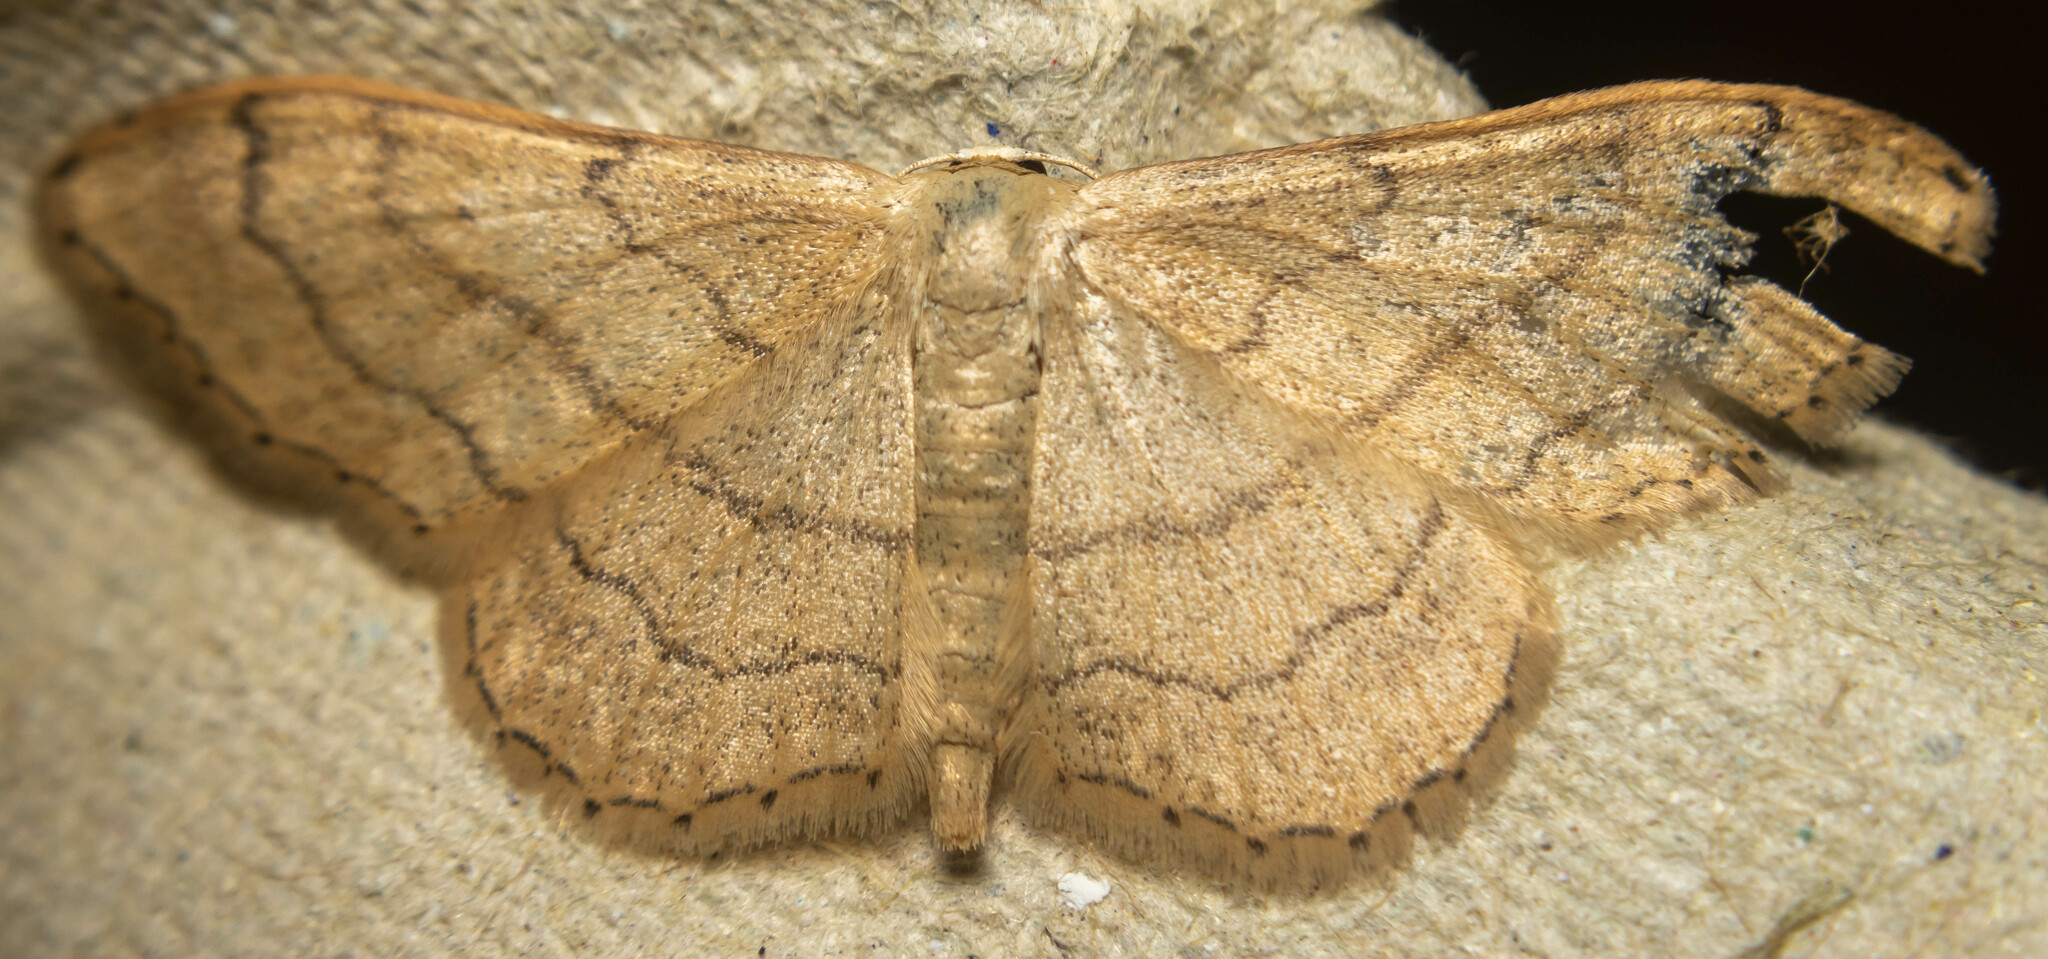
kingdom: Animalia
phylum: Arthropoda
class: Insecta
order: Lepidoptera
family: Geometridae
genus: Idaea
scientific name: Idaea aversata
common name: Riband wave
